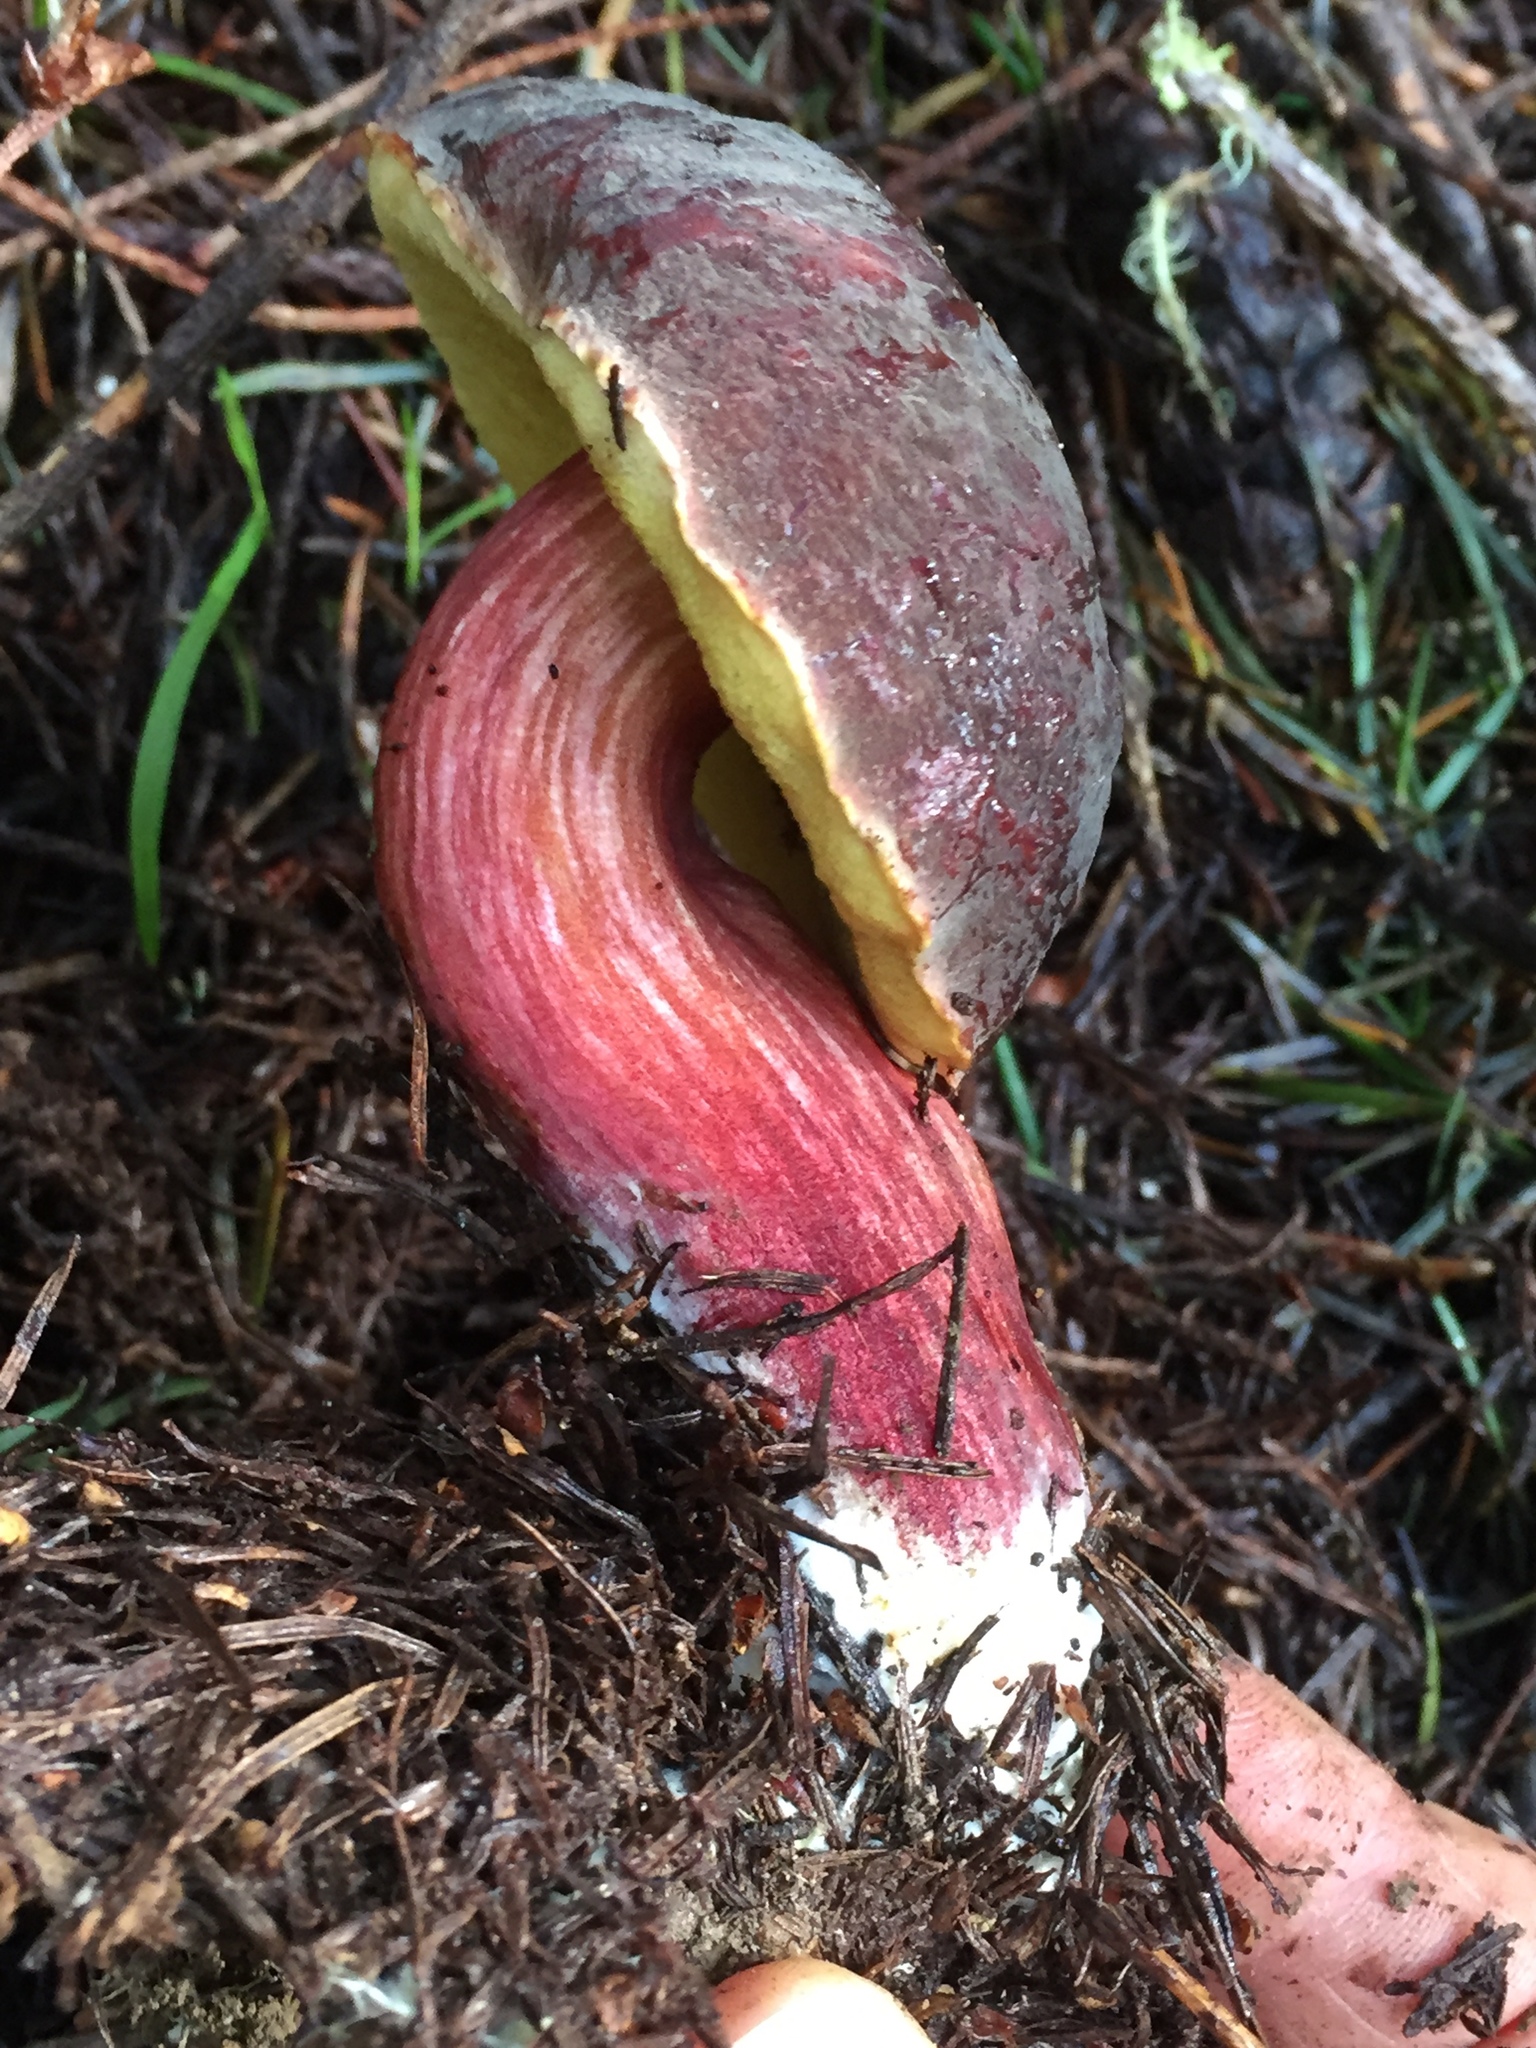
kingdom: Fungi
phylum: Basidiomycota
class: Agaricomycetes
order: Boletales
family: Boletaceae
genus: Xerocomellus
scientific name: Xerocomellus atropurpureus
